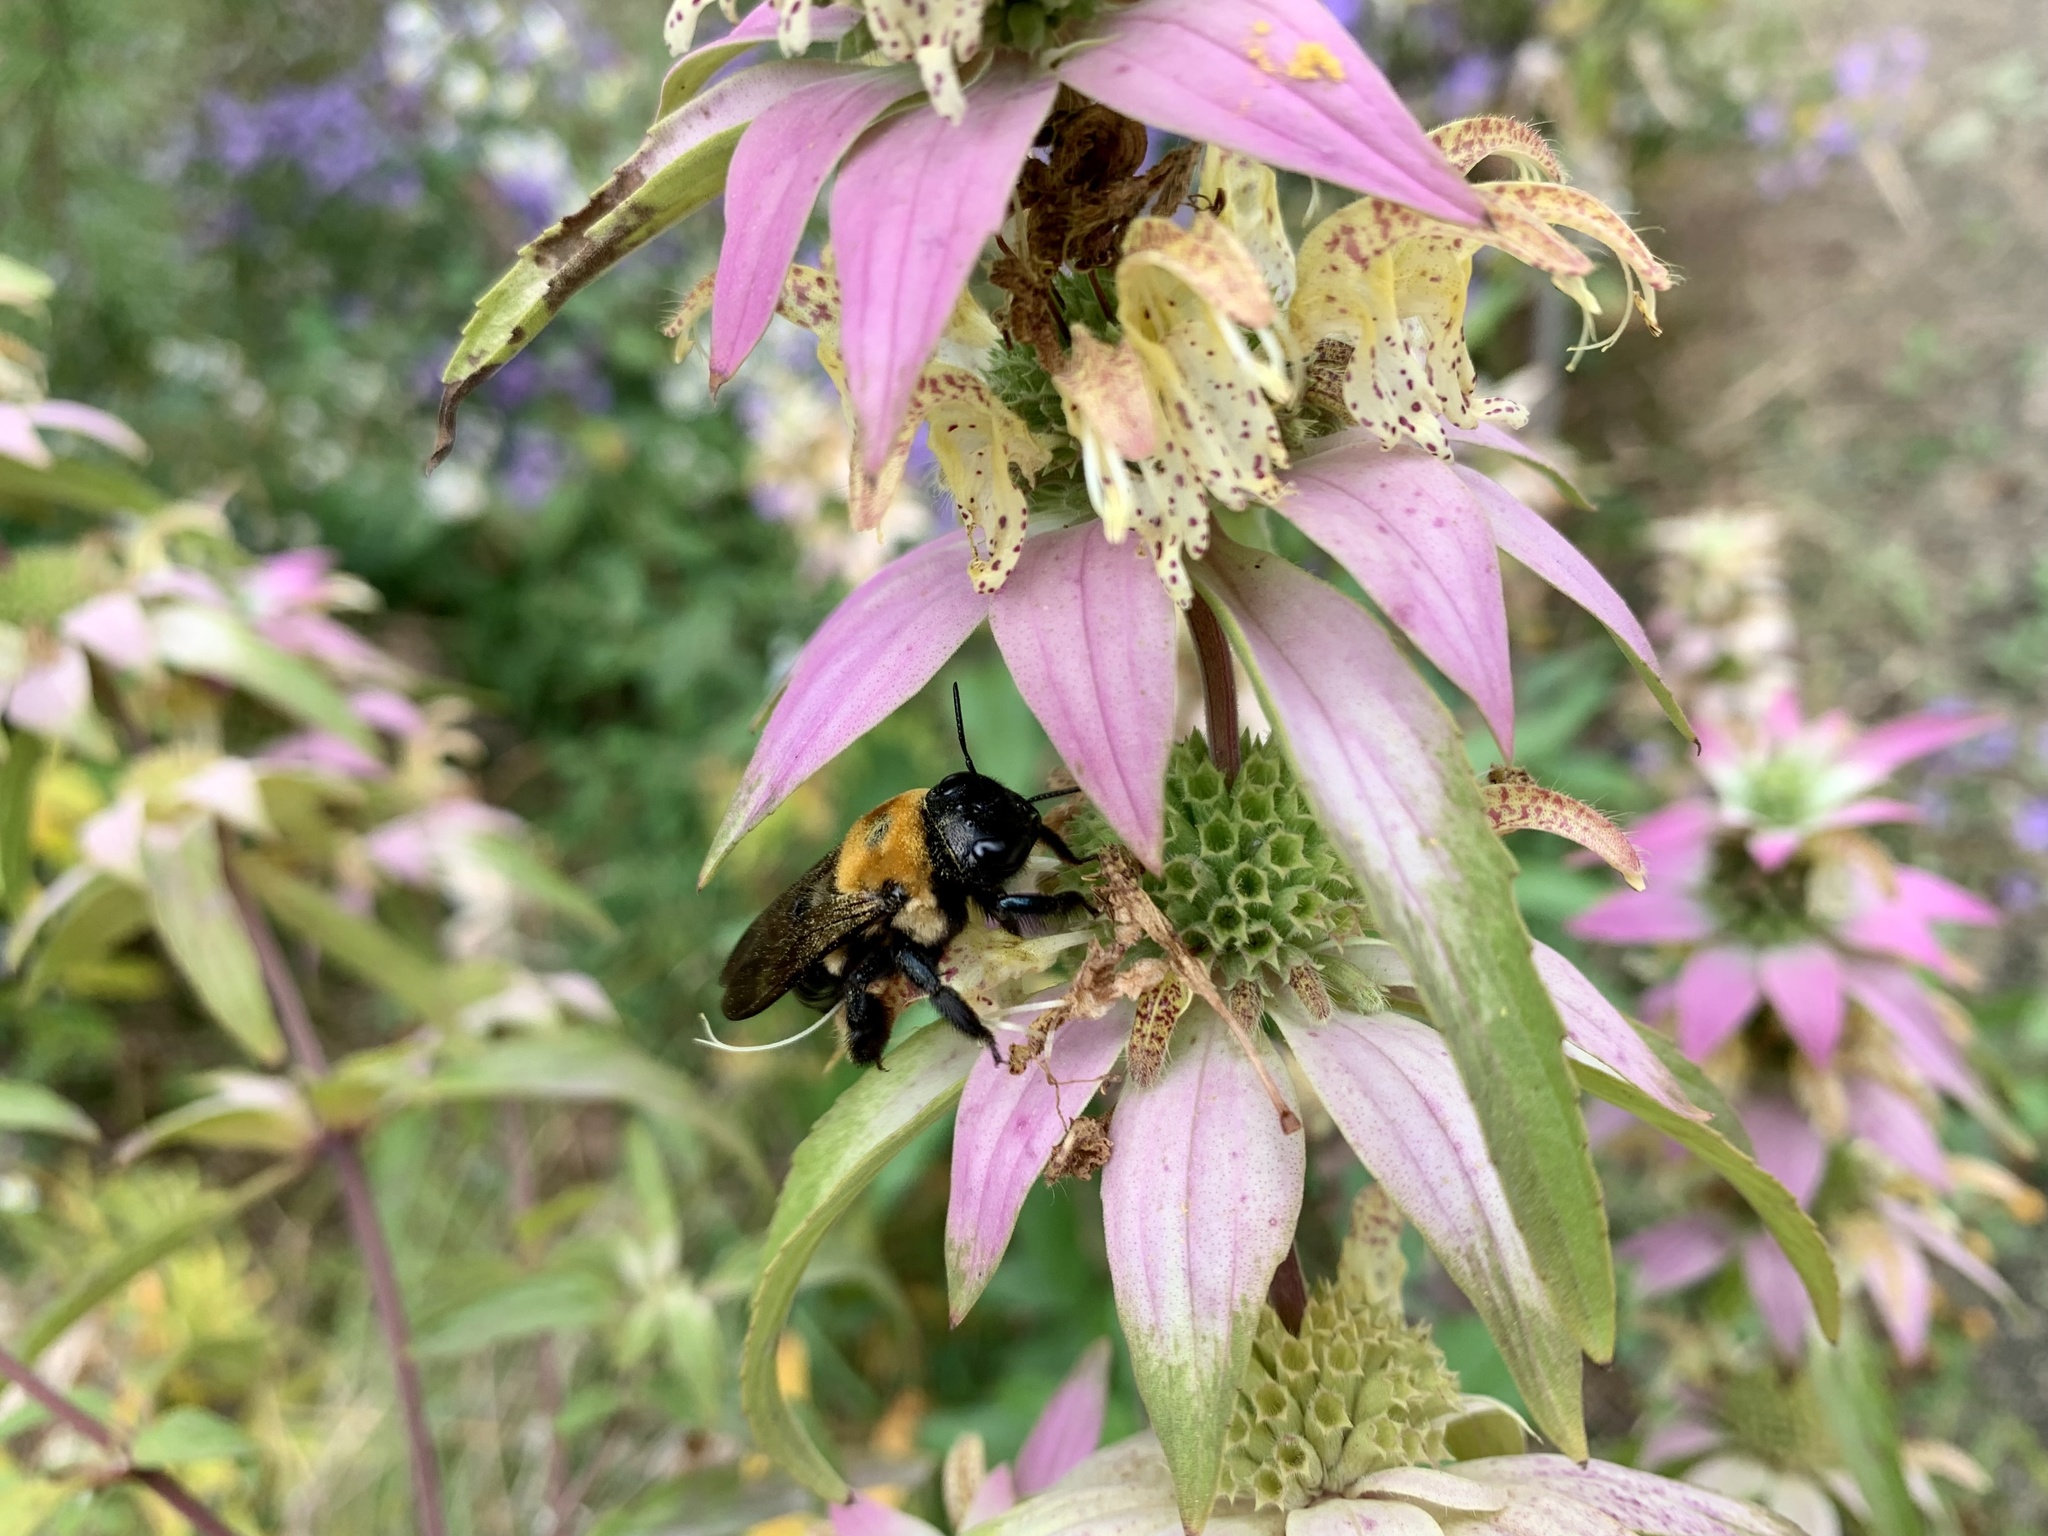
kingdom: Animalia
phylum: Arthropoda
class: Insecta
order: Hymenoptera
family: Apidae
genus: Xylocopa
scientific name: Xylocopa virginica
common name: Carpenter bee
